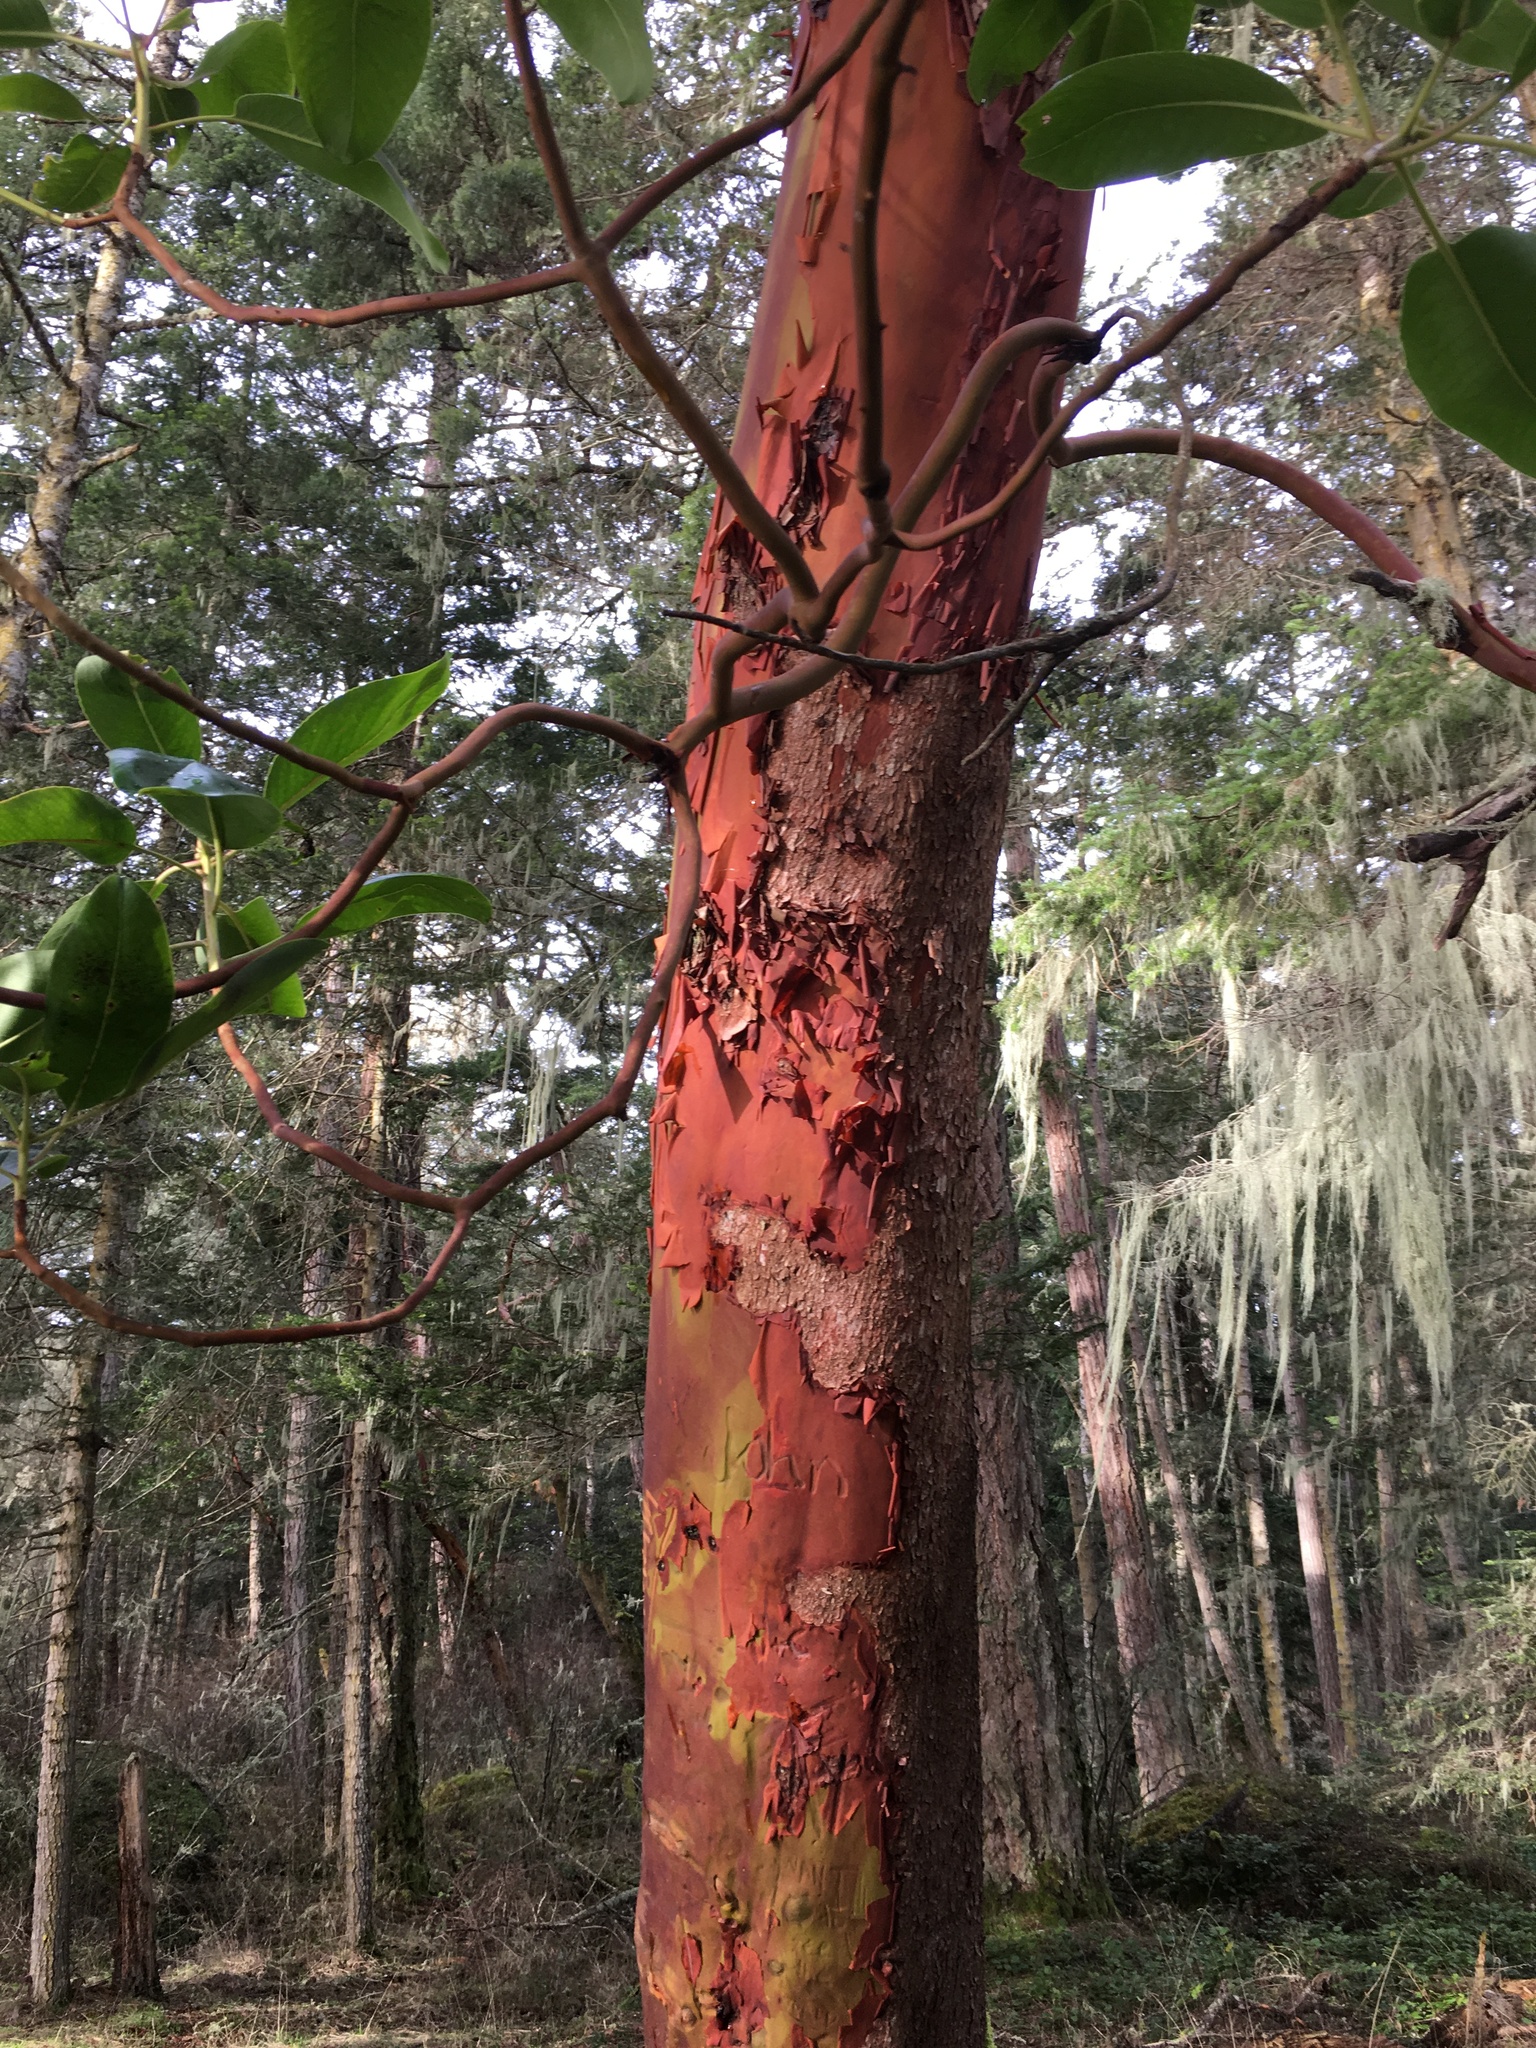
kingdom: Plantae
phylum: Tracheophyta
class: Magnoliopsida
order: Ericales
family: Ericaceae
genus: Arbutus
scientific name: Arbutus menziesii
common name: Pacific madrone
